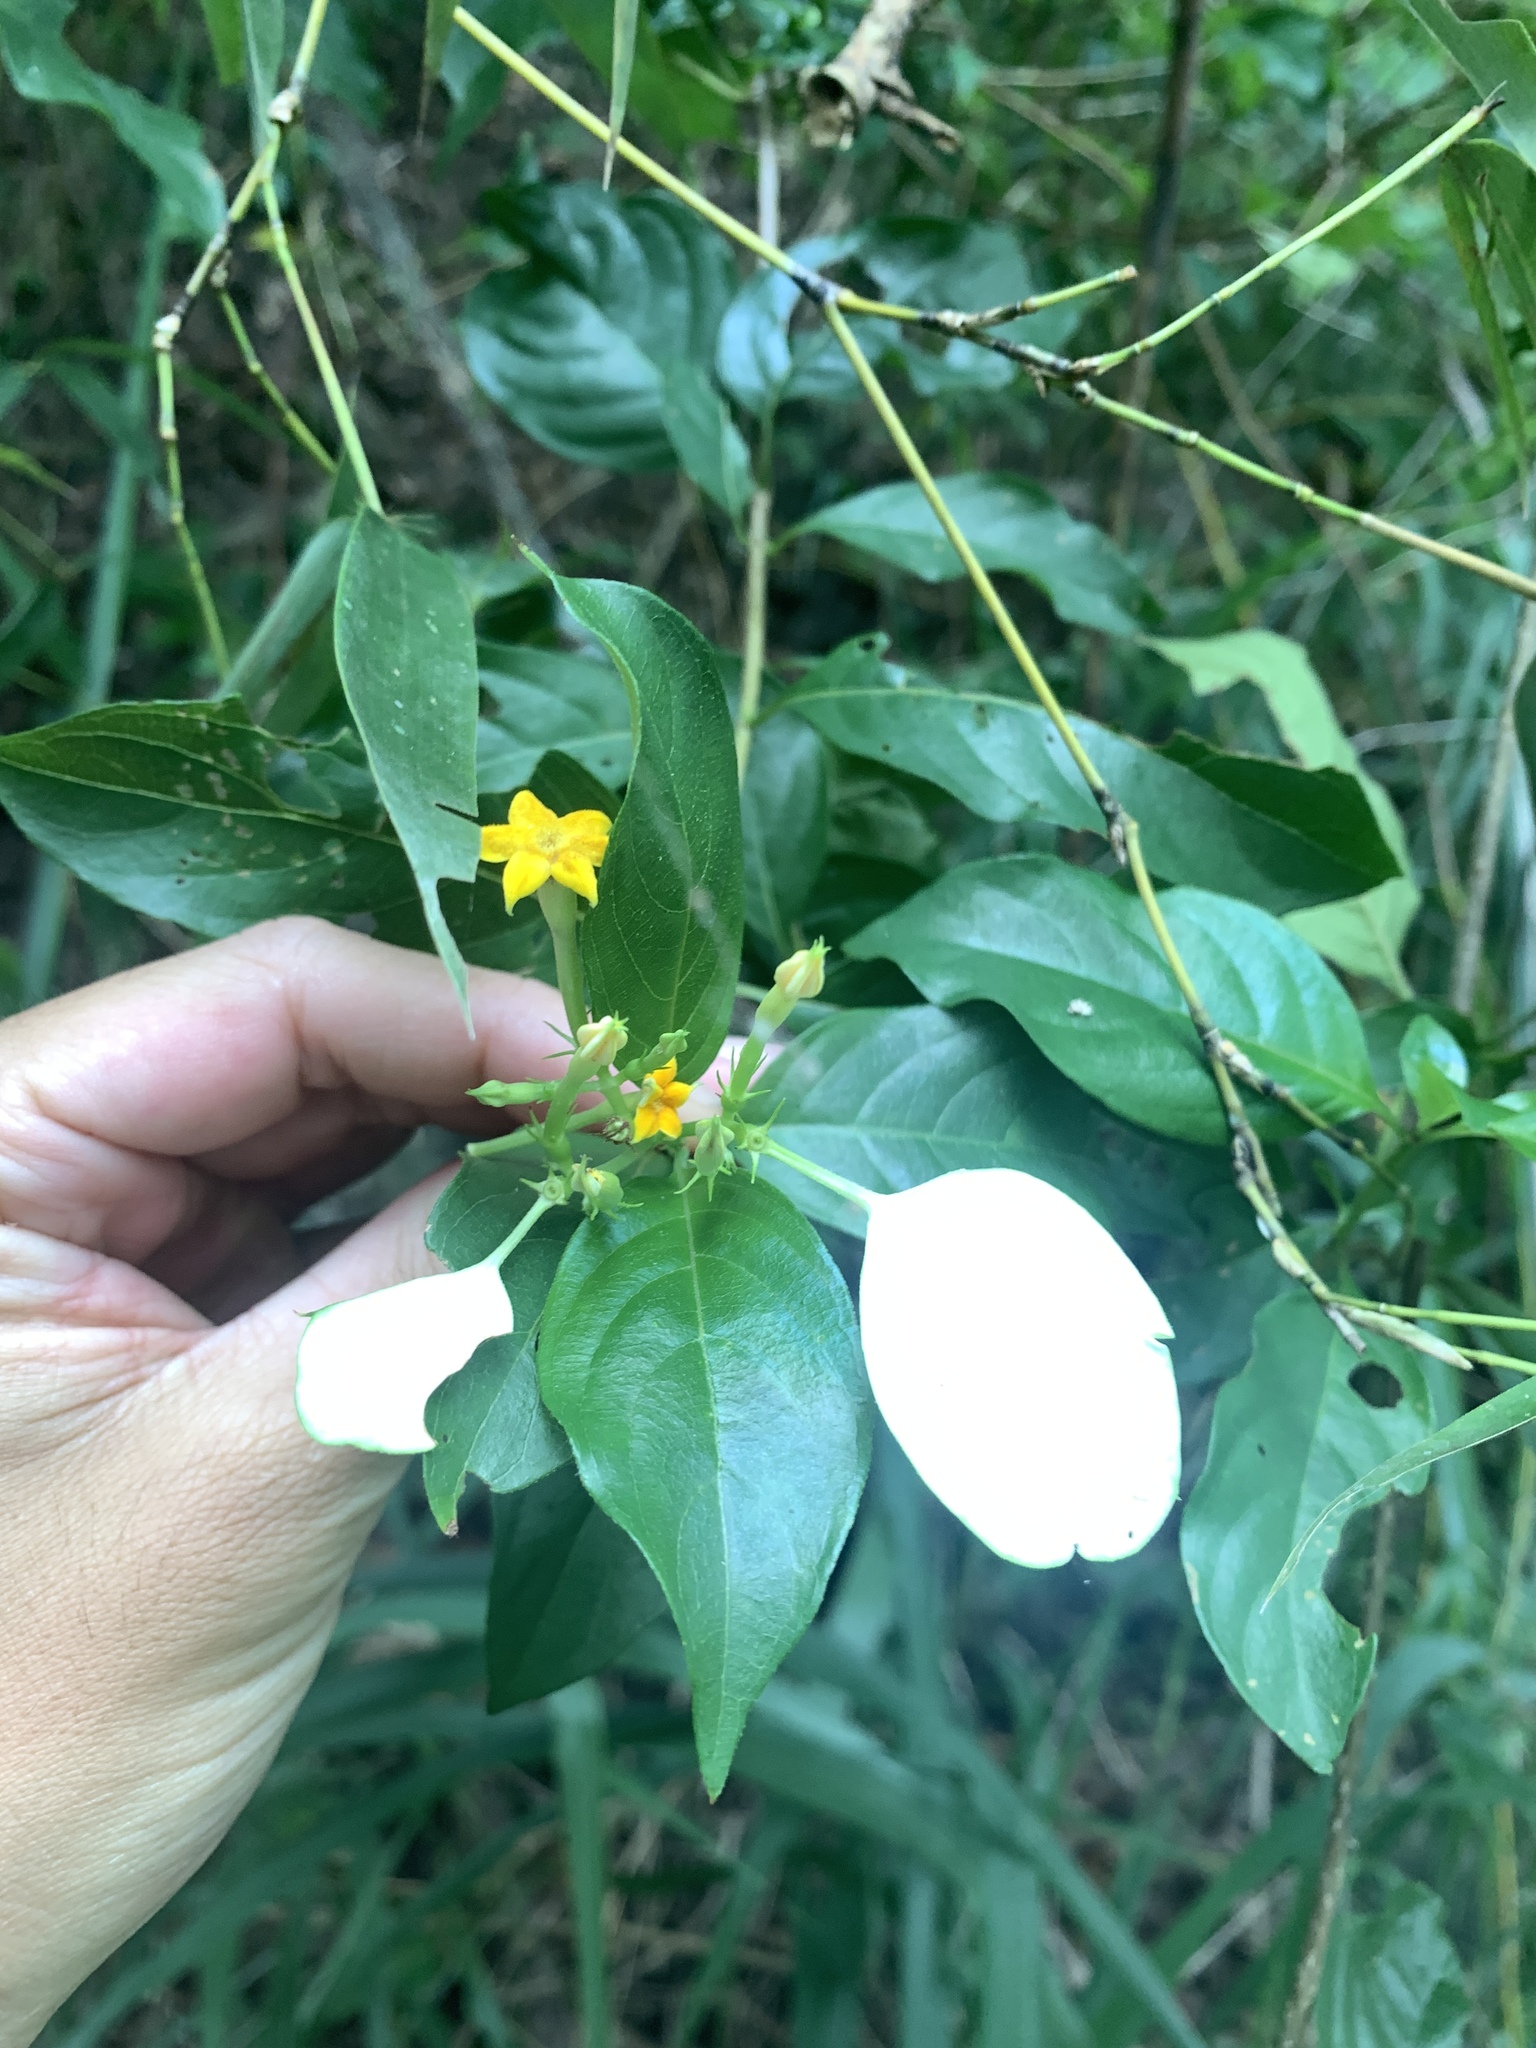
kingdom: Plantae
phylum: Tracheophyta
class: Magnoliopsida
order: Gentianales
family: Rubiaceae
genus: Mussaenda
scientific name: Mussaenda formosana
